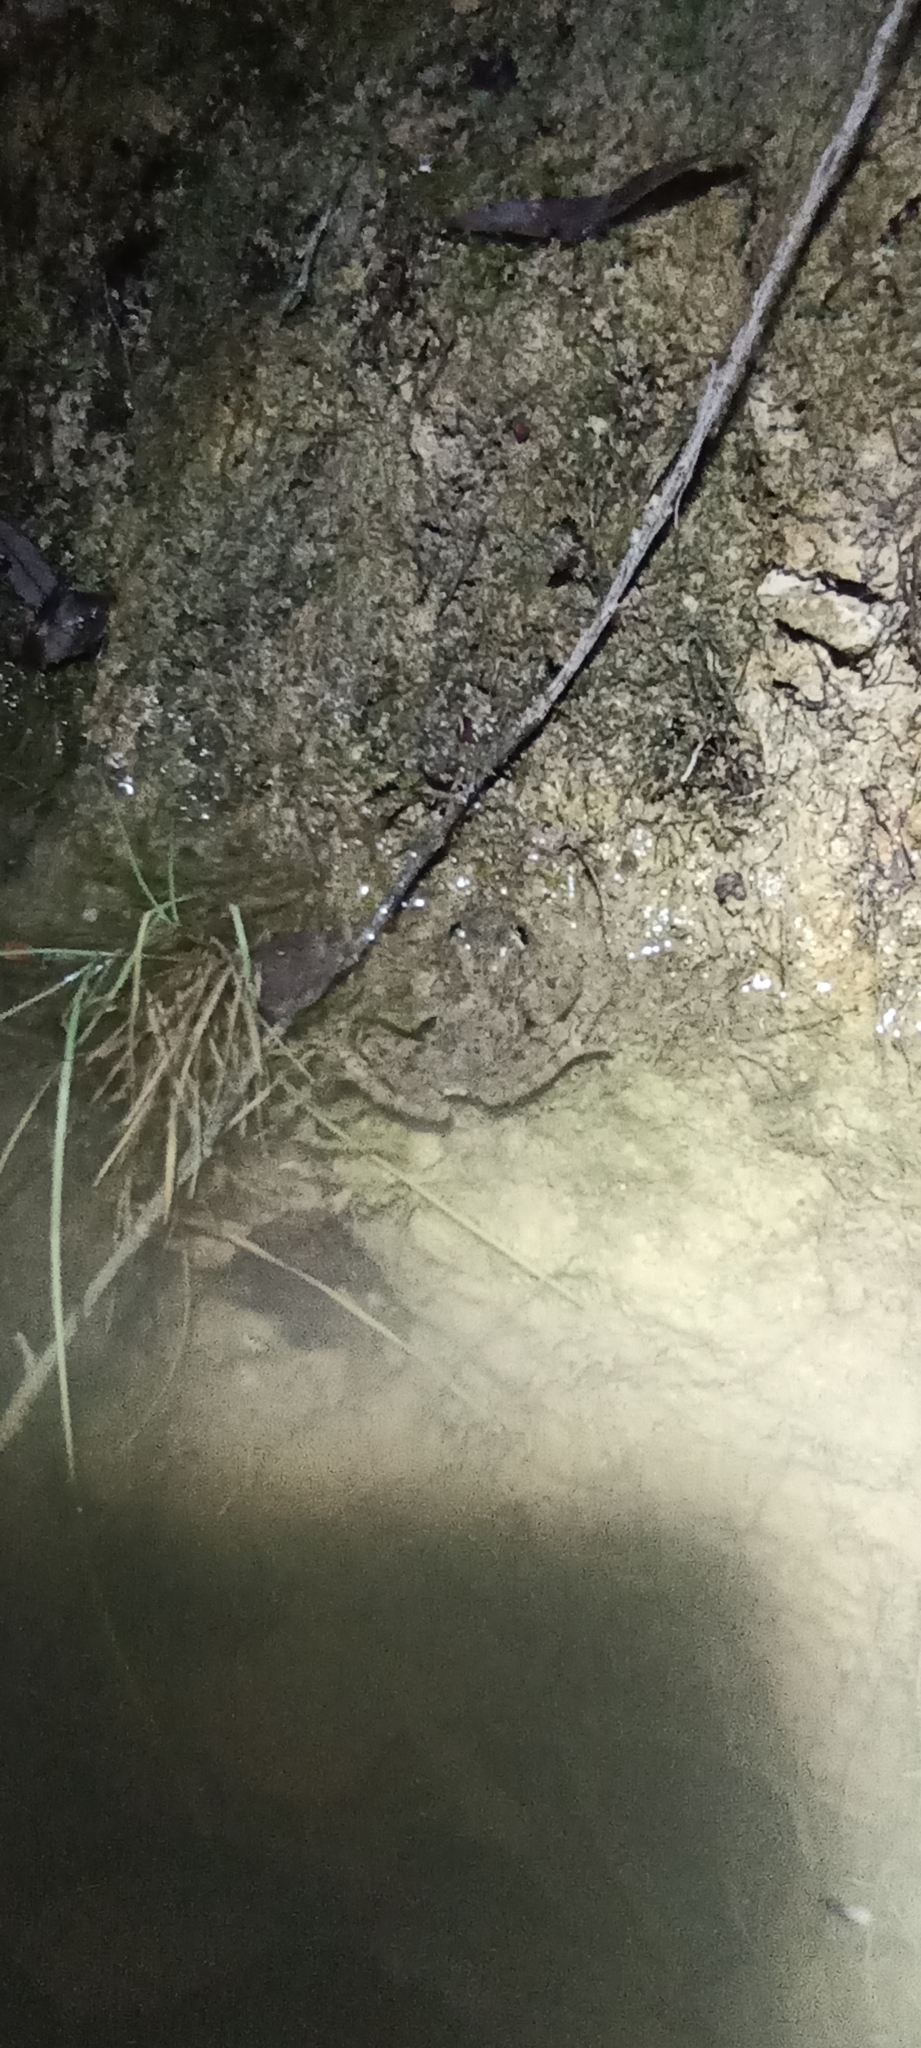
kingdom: Animalia
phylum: Chordata
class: Amphibia
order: Anura
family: Pelodytidae
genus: Pelodytes
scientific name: Pelodytes punctatus
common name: Parsley frog
